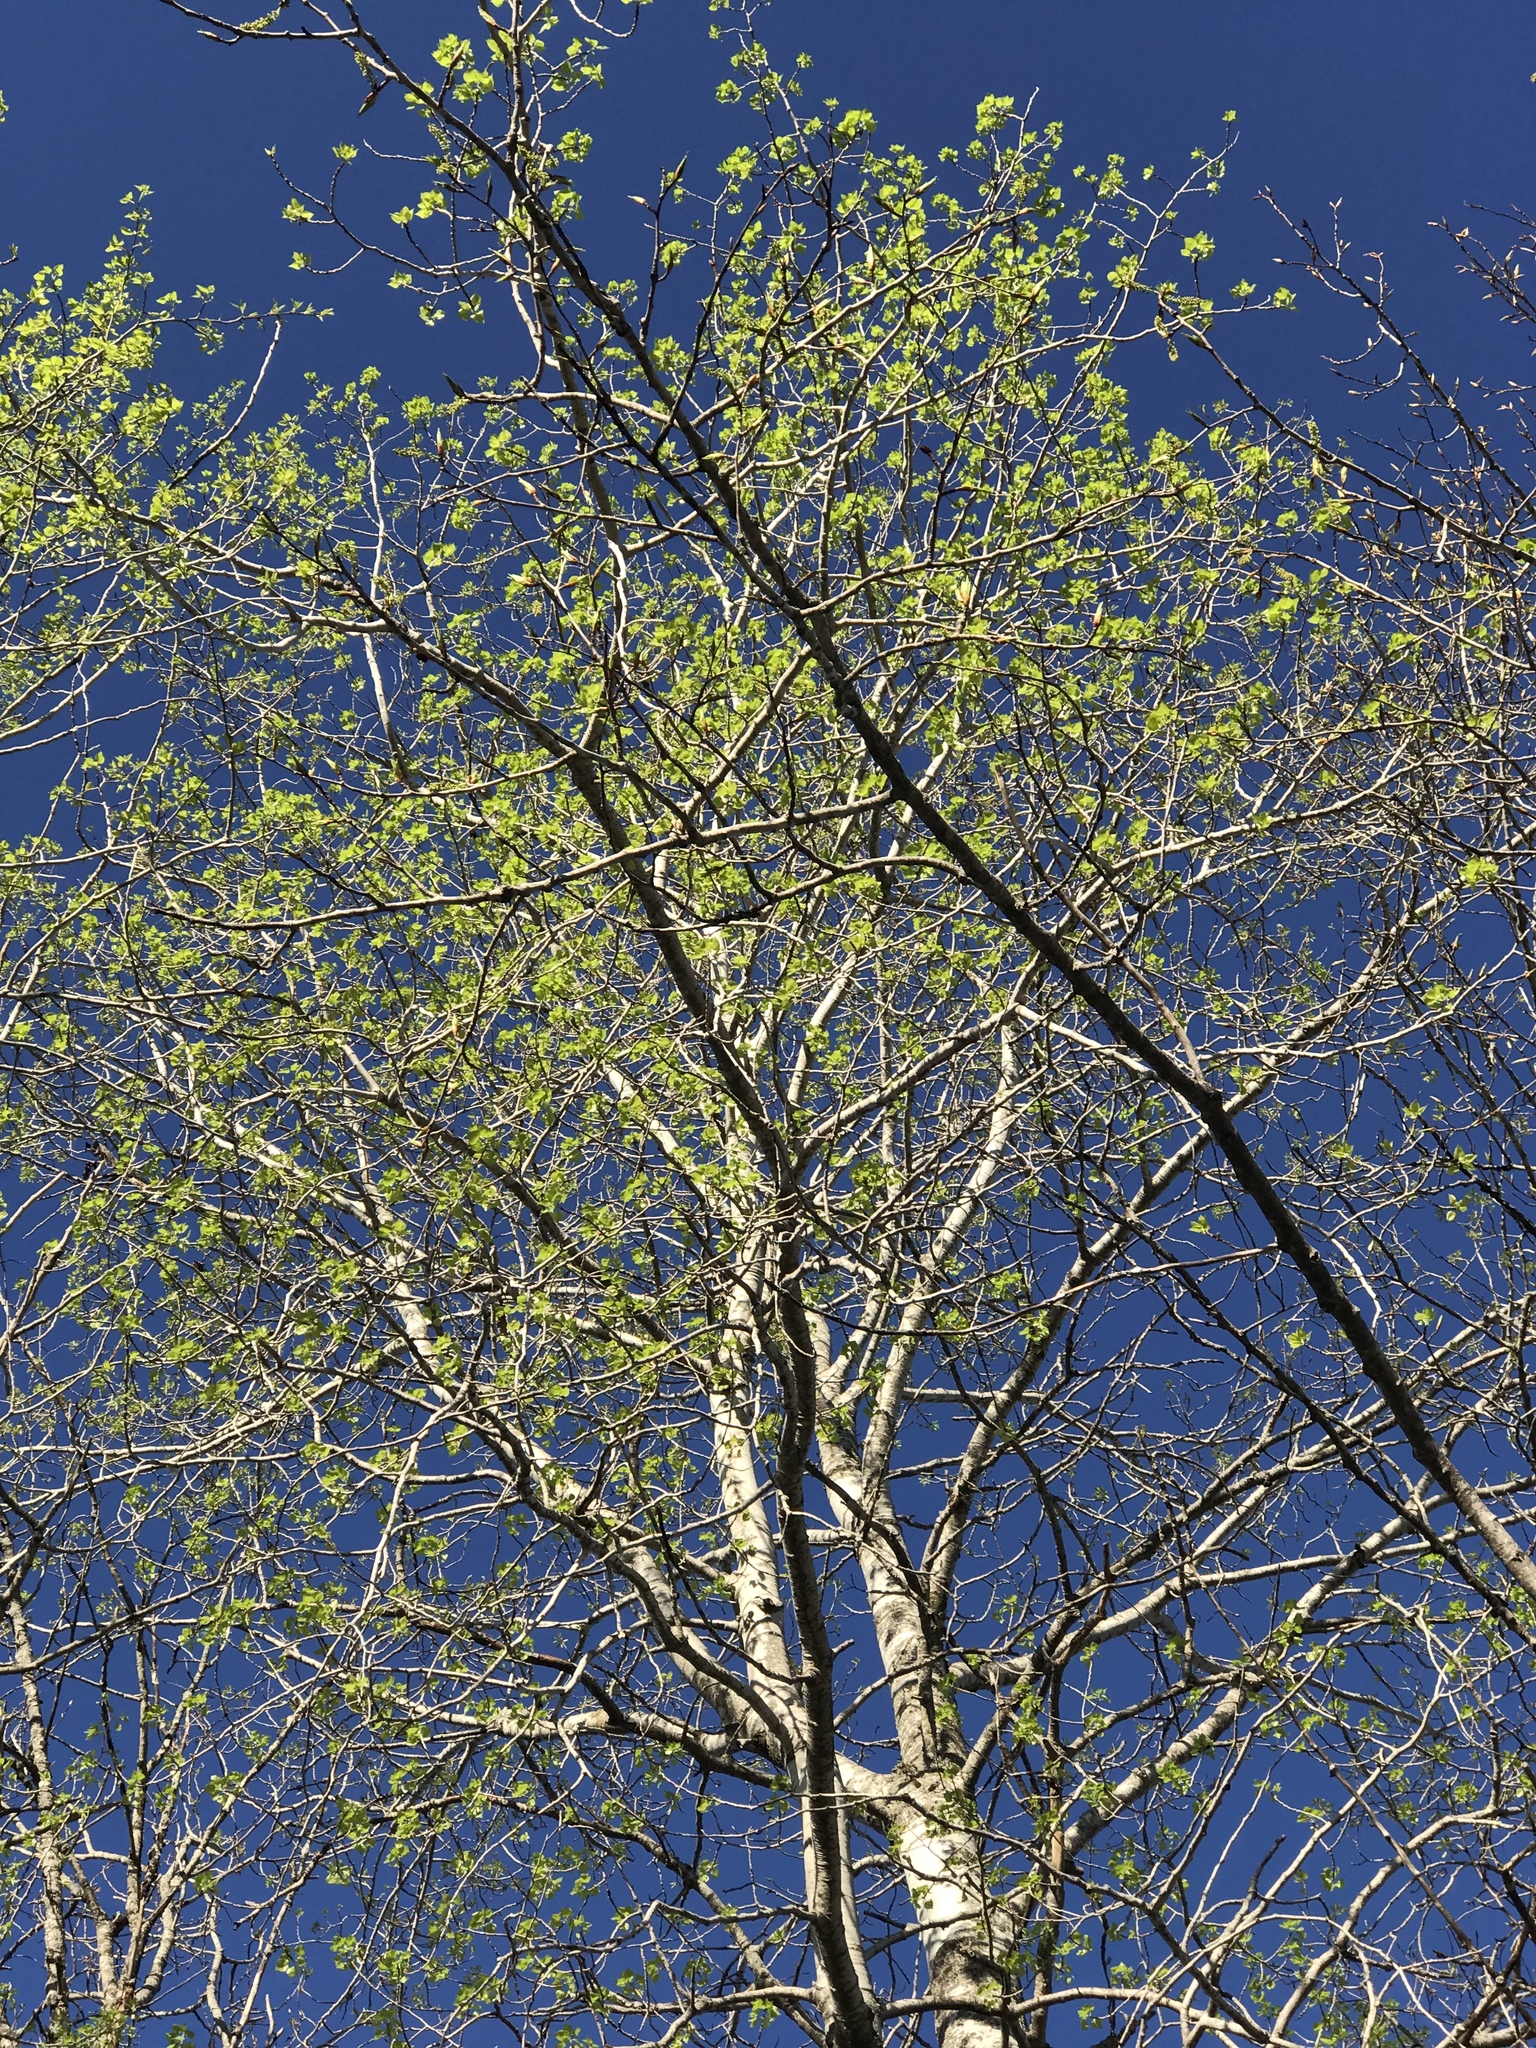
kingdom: Plantae
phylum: Tracheophyta
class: Magnoliopsida
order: Malpighiales
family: Salicaceae
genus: Populus
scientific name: Populus tremuloides
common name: Quaking aspen
